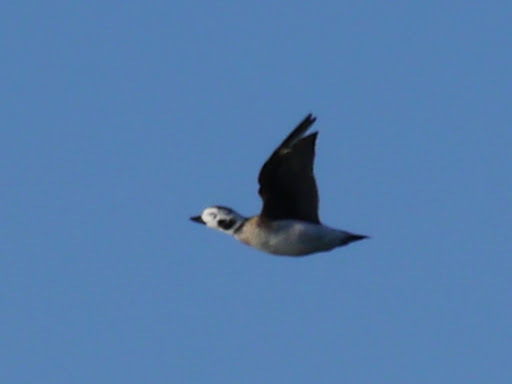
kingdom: Animalia
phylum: Chordata
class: Aves
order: Anseriformes
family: Anatidae
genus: Clangula
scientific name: Clangula hyemalis
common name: Long-tailed duck
